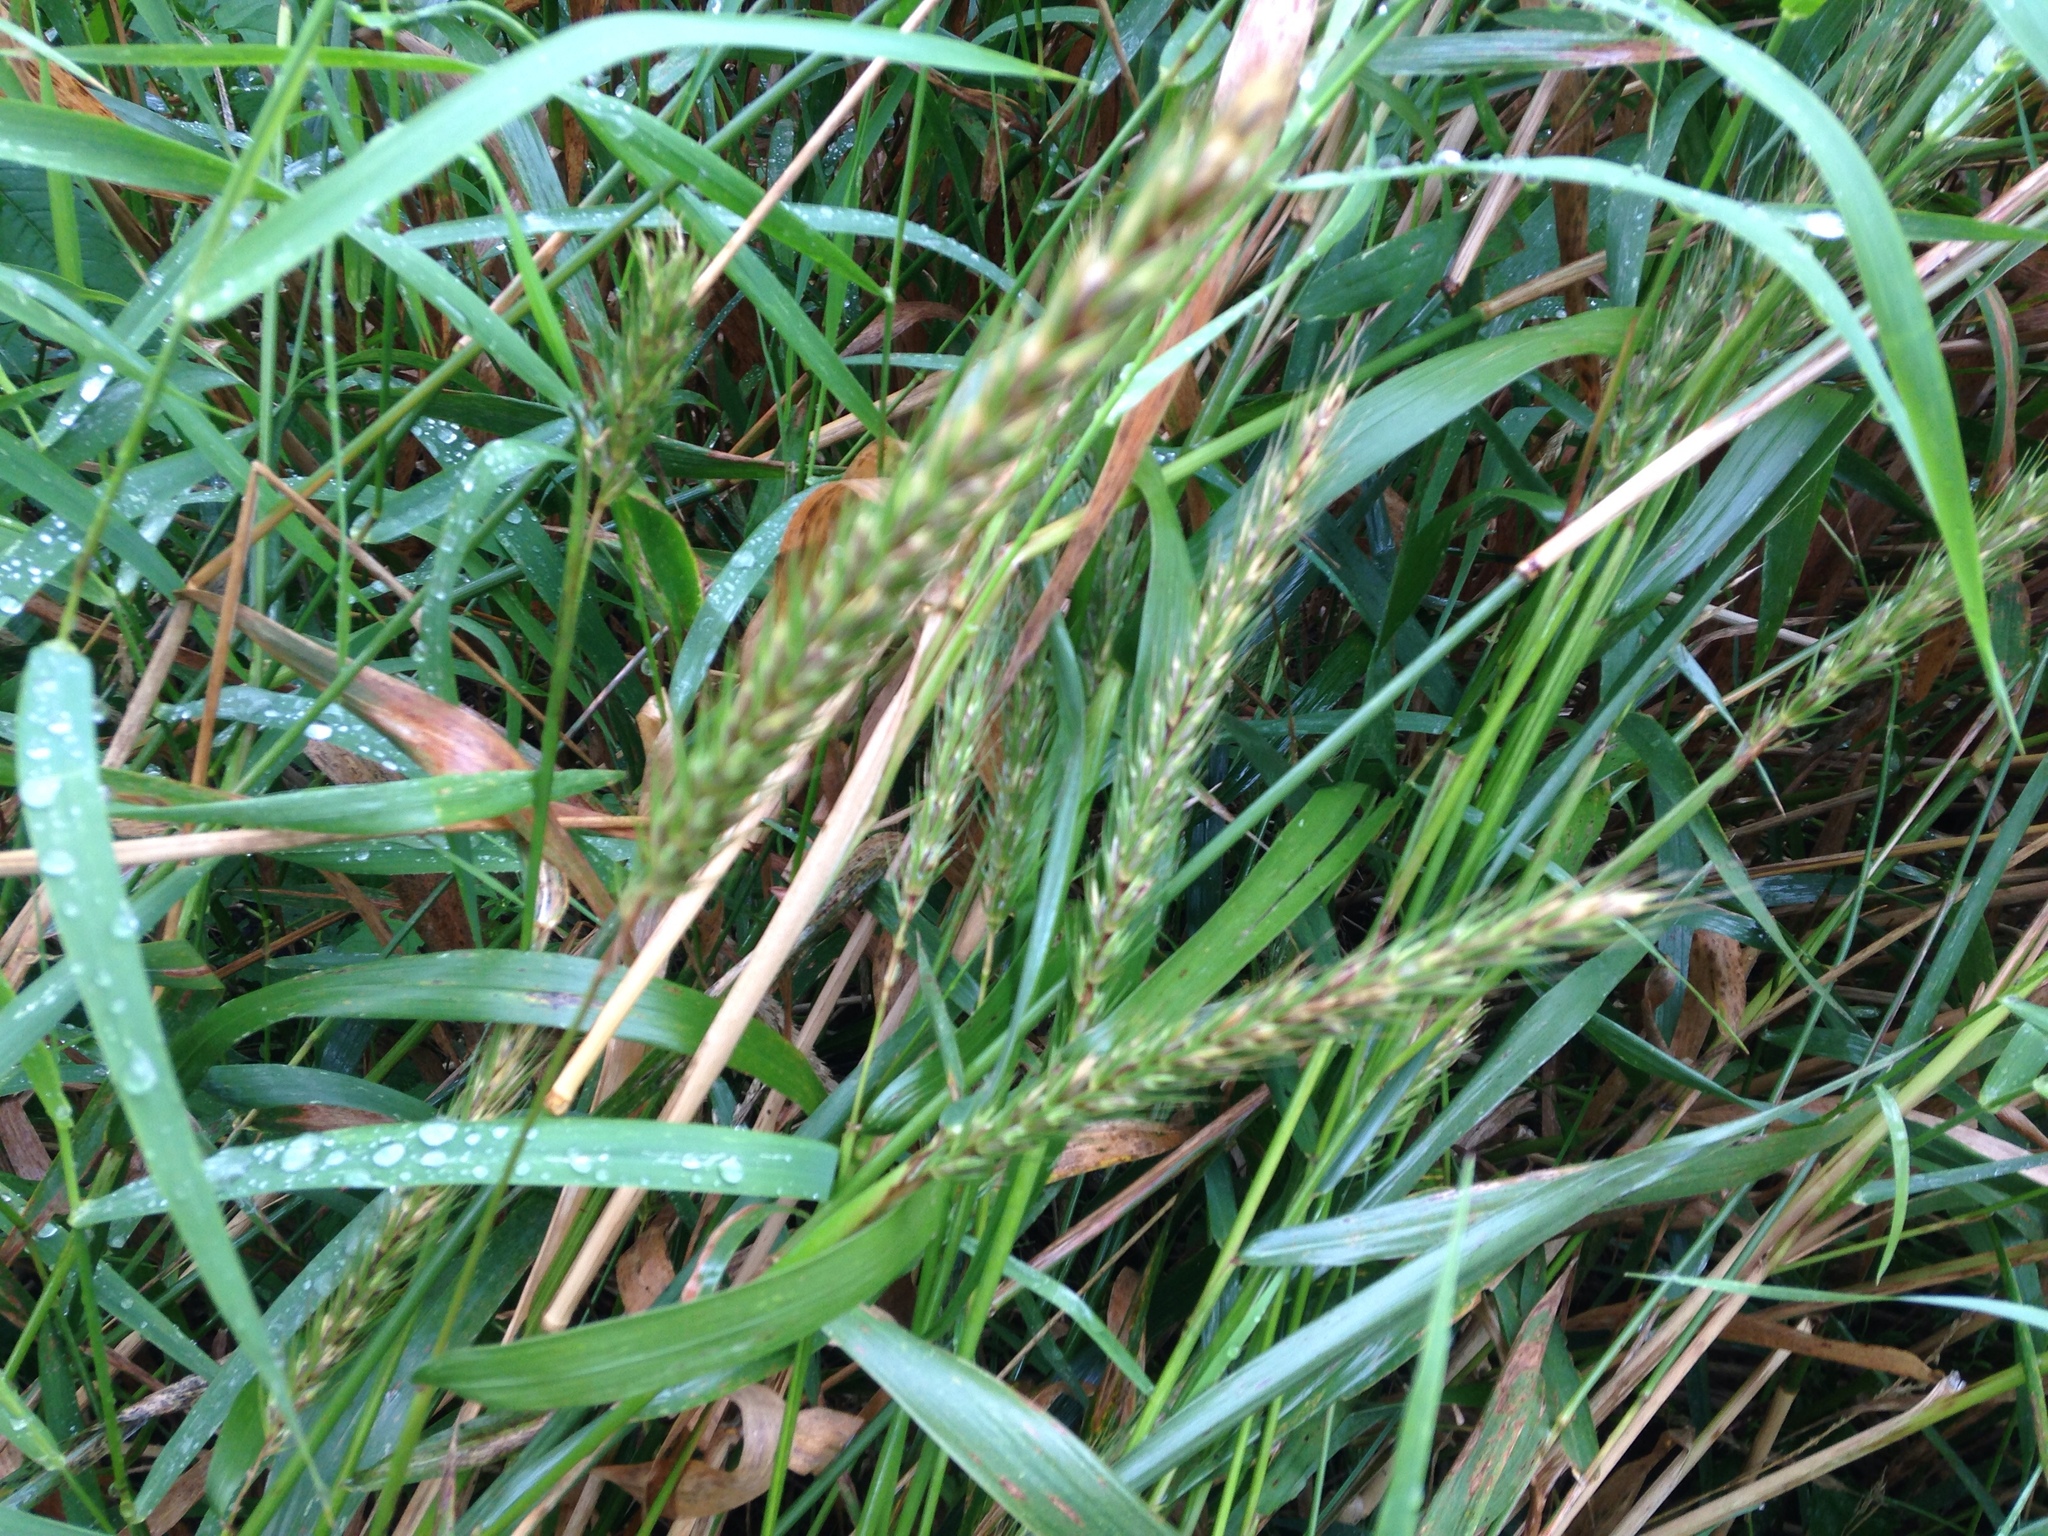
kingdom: Plantae
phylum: Tracheophyta
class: Liliopsida
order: Poales
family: Poaceae
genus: Elymus
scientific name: Elymus virginicus
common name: Common eastern wildrye
